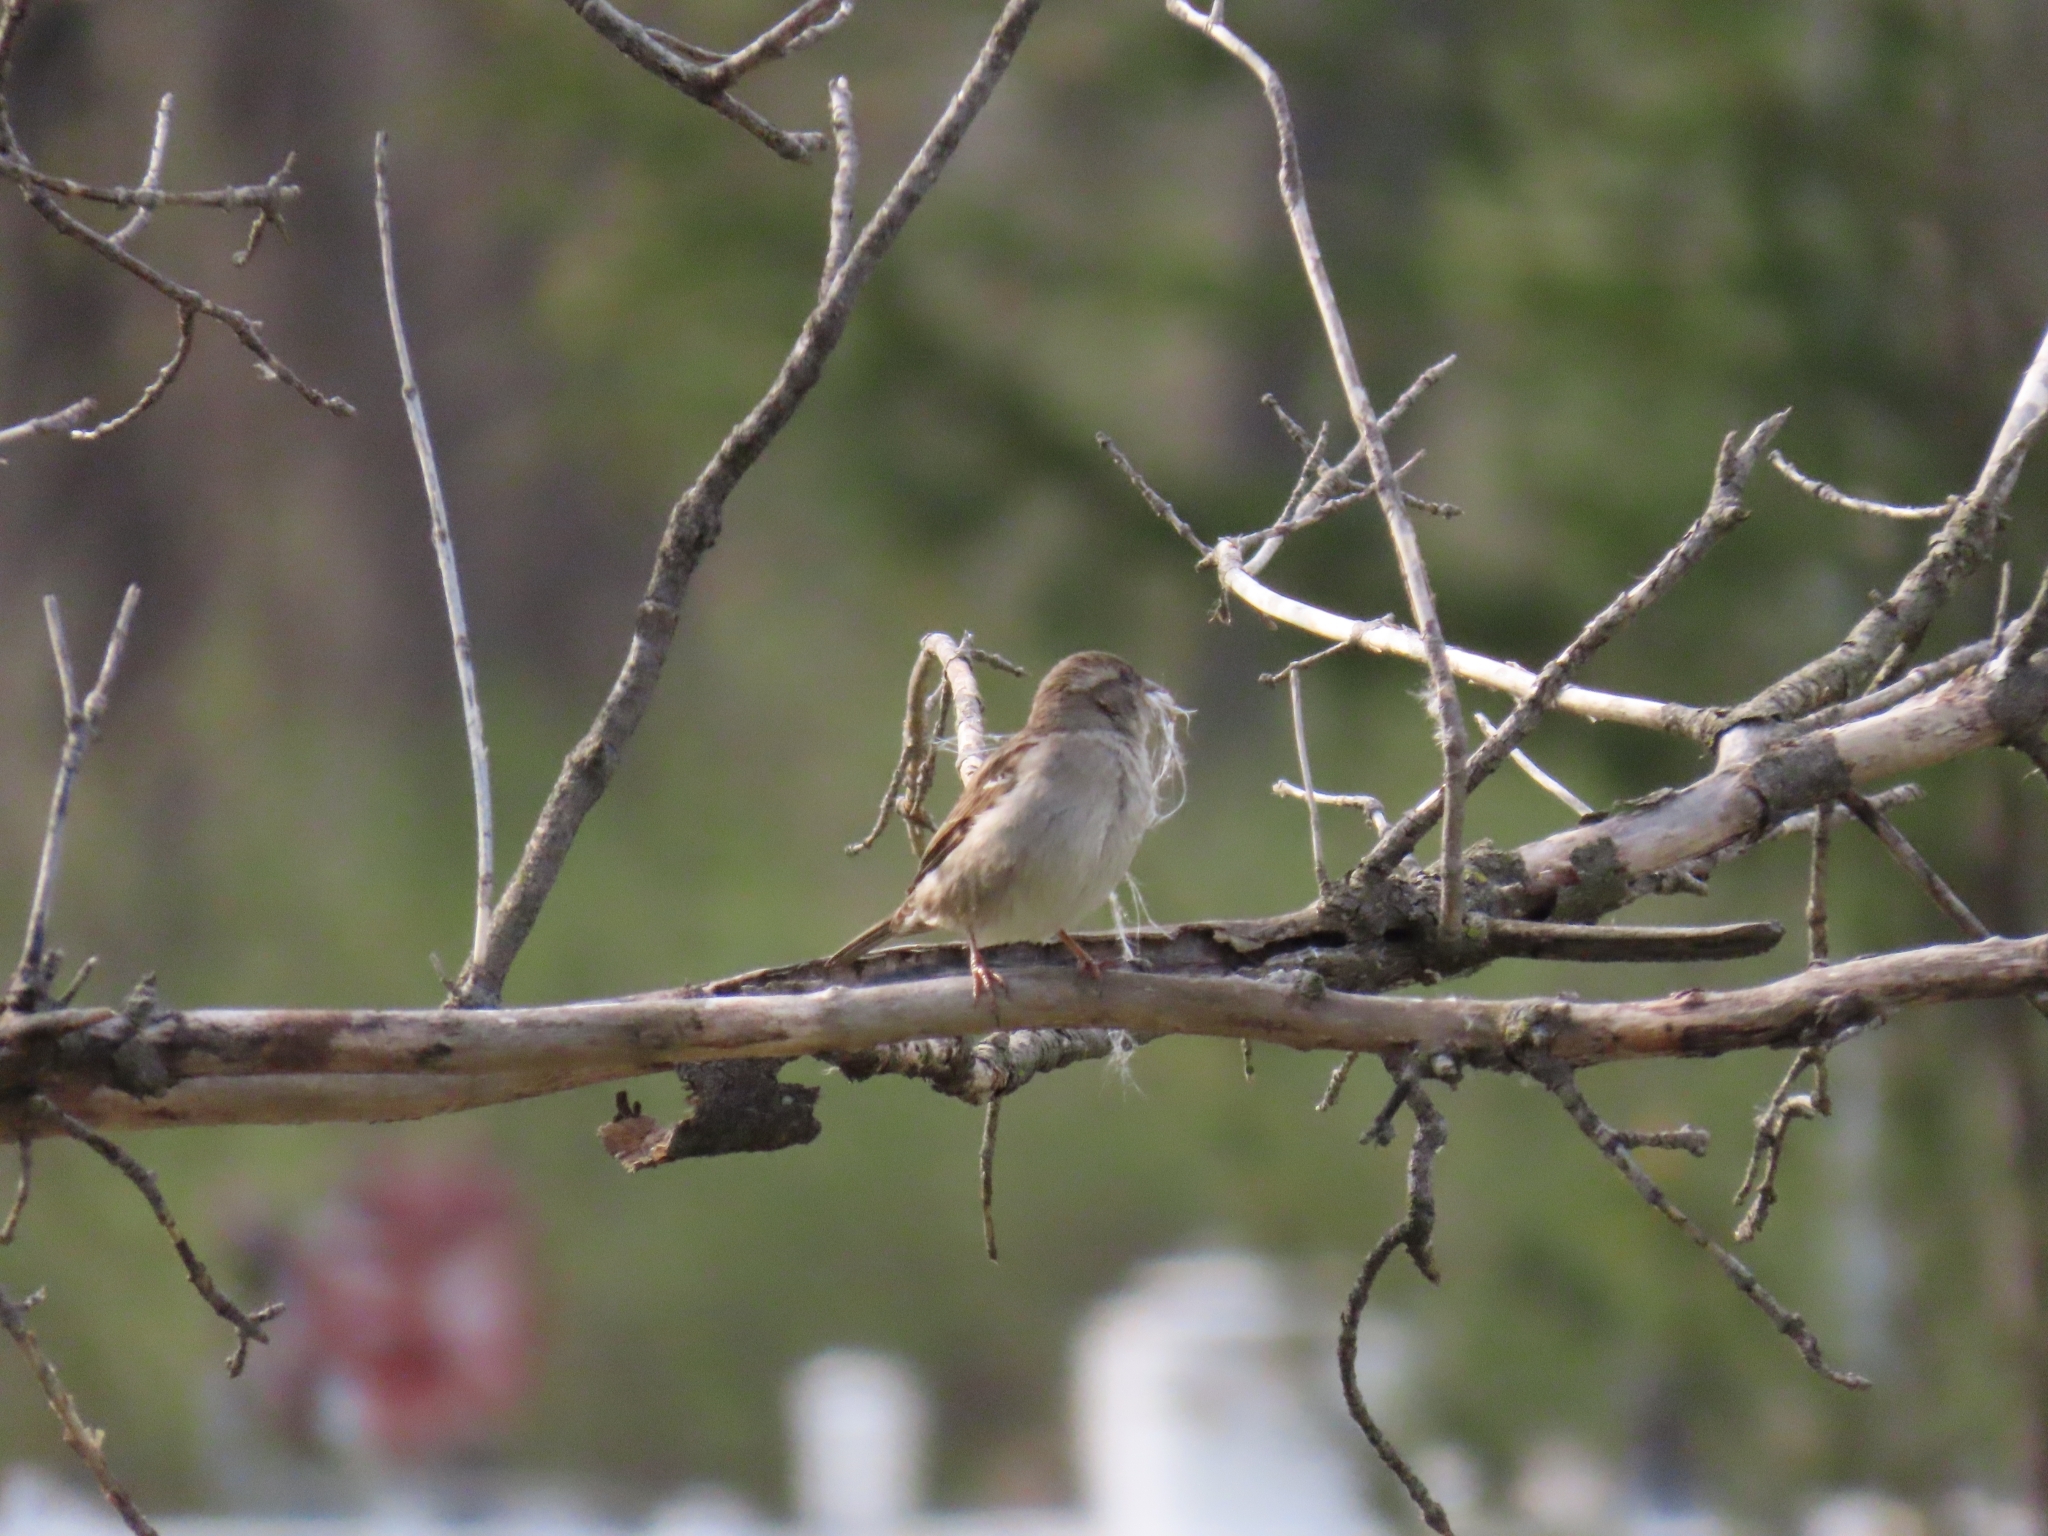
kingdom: Animalia
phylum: Chordata
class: Aves
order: Passeriformes
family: Passeridae
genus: Passer
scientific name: Passer domesticus
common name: House sparrow
